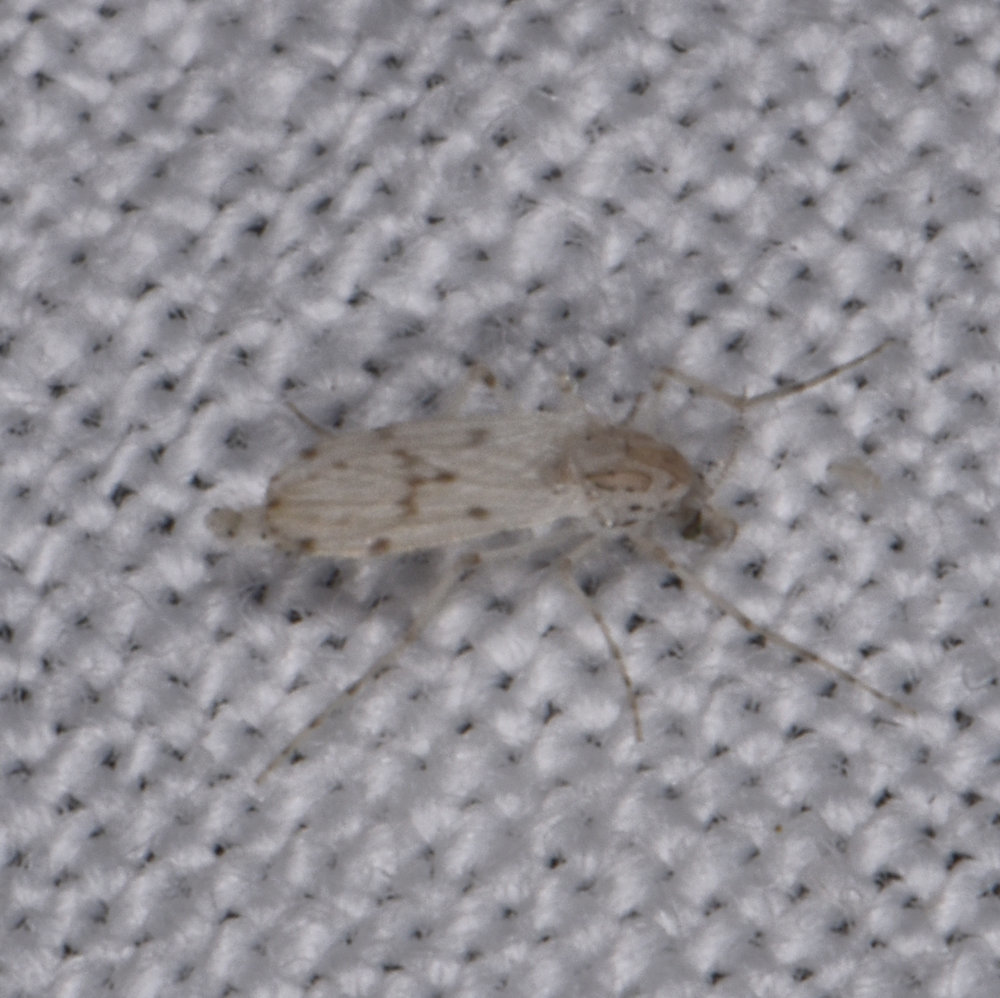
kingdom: Animalia
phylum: Arthropoda
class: Insecta
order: Diptera
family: Chaoboridae
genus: Chaoborus
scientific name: Chaoborus albatus
